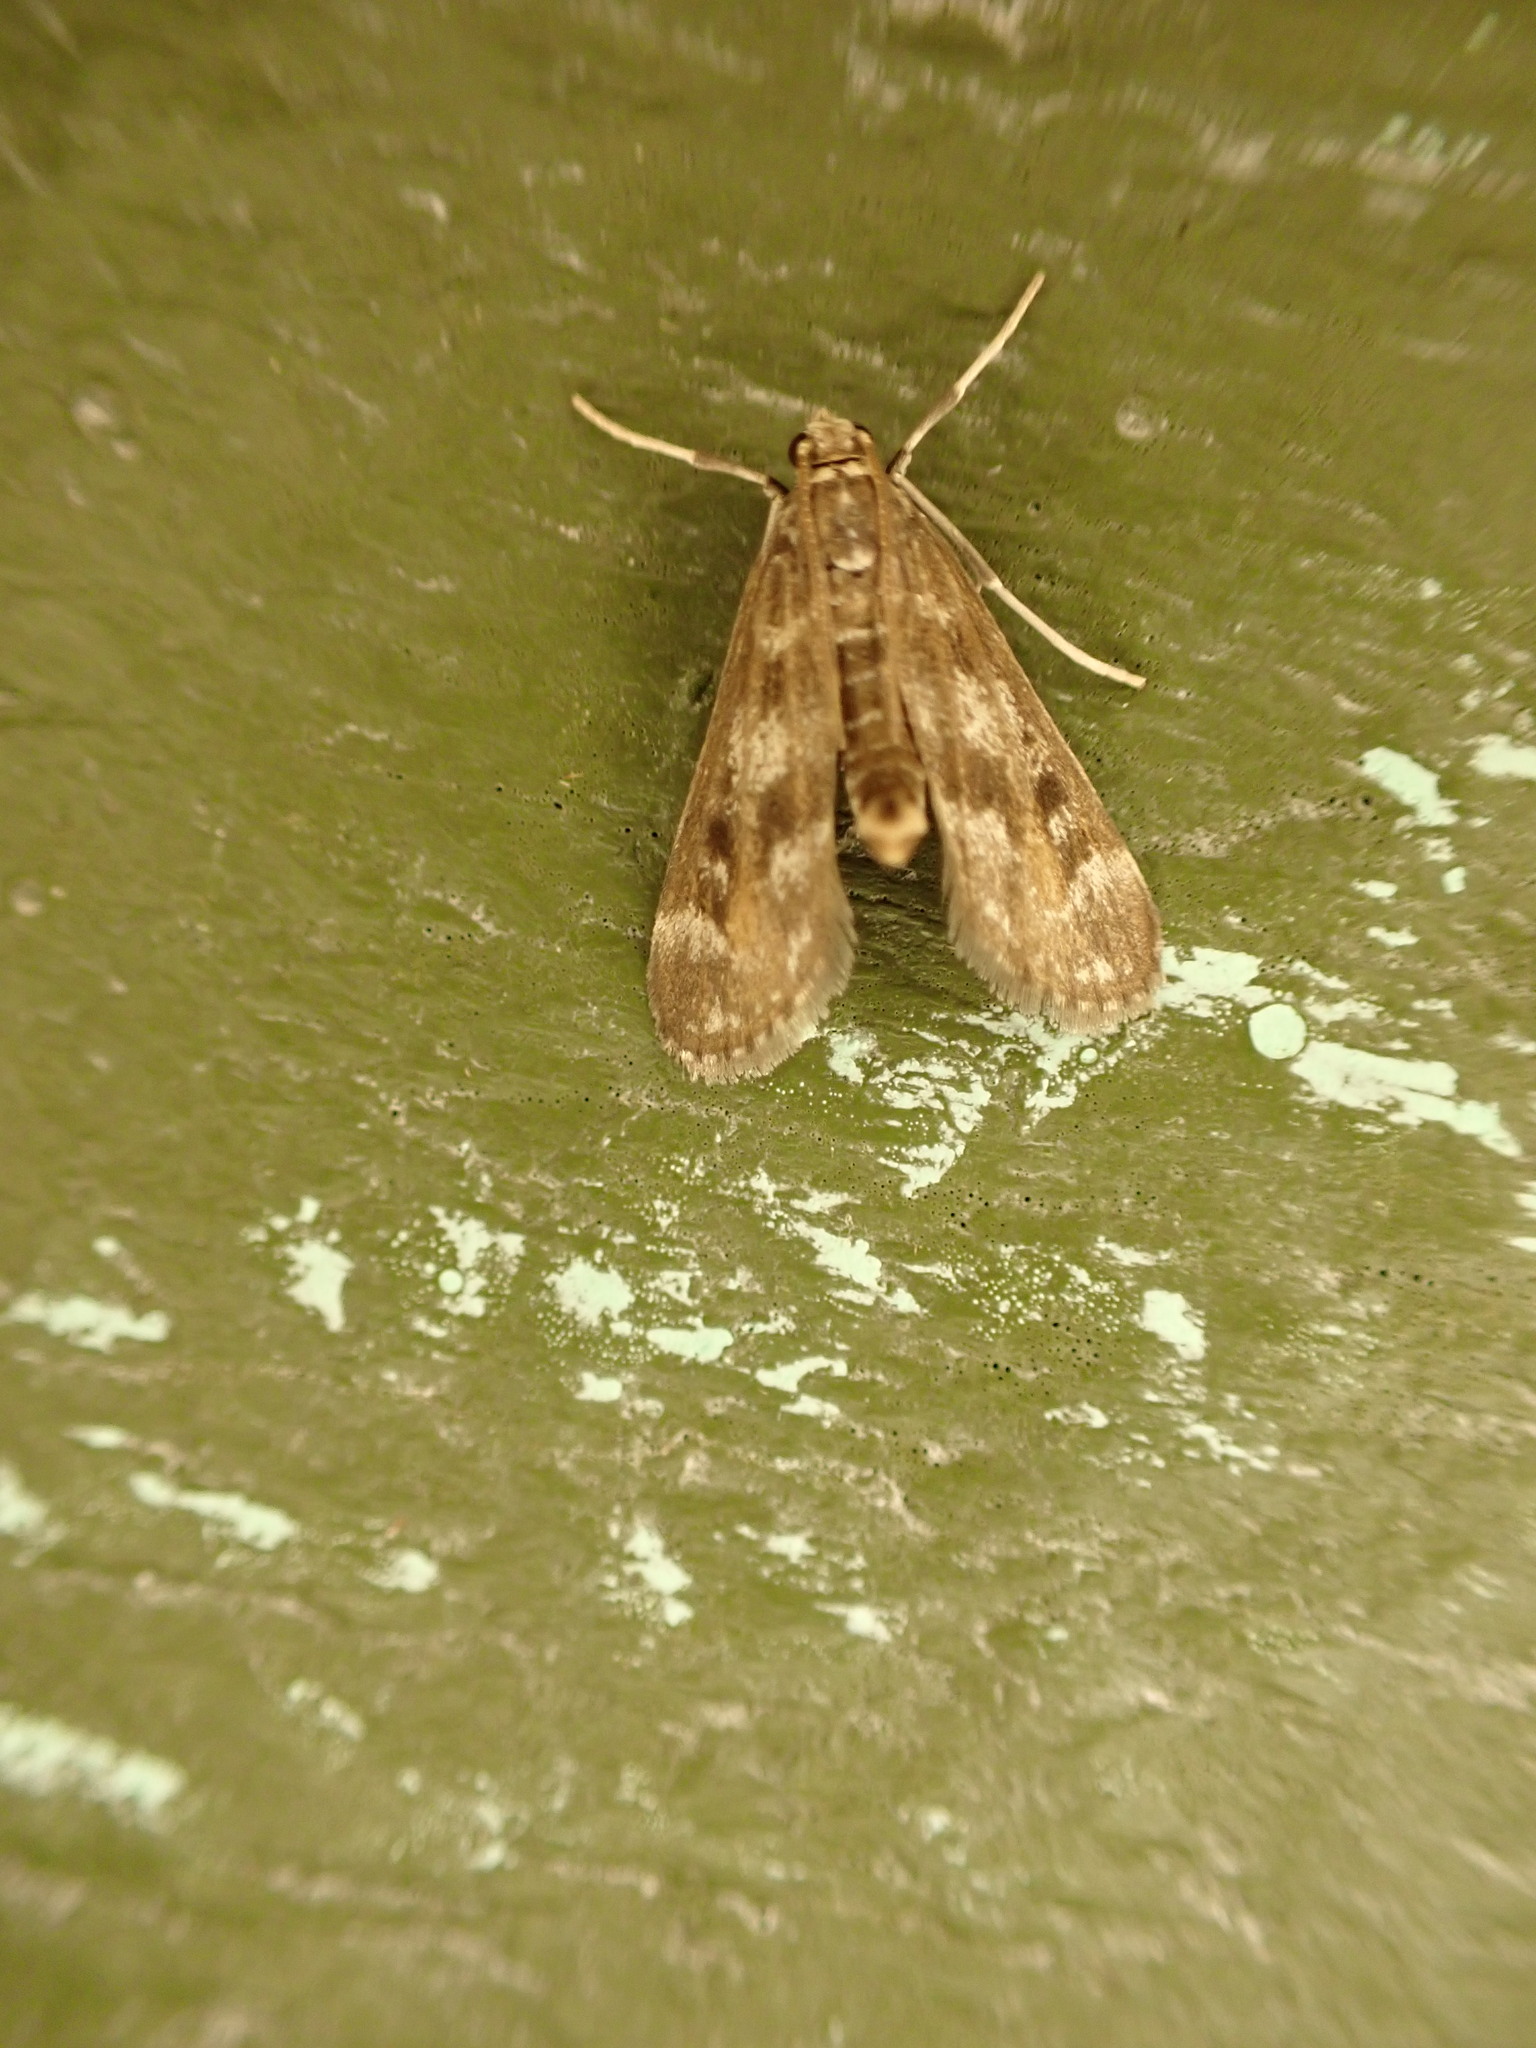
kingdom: Animalia
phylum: Arthropoda
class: Insecta
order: Lepidoptera
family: Crambidae
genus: Hygraula
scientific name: Hygraula nitens
